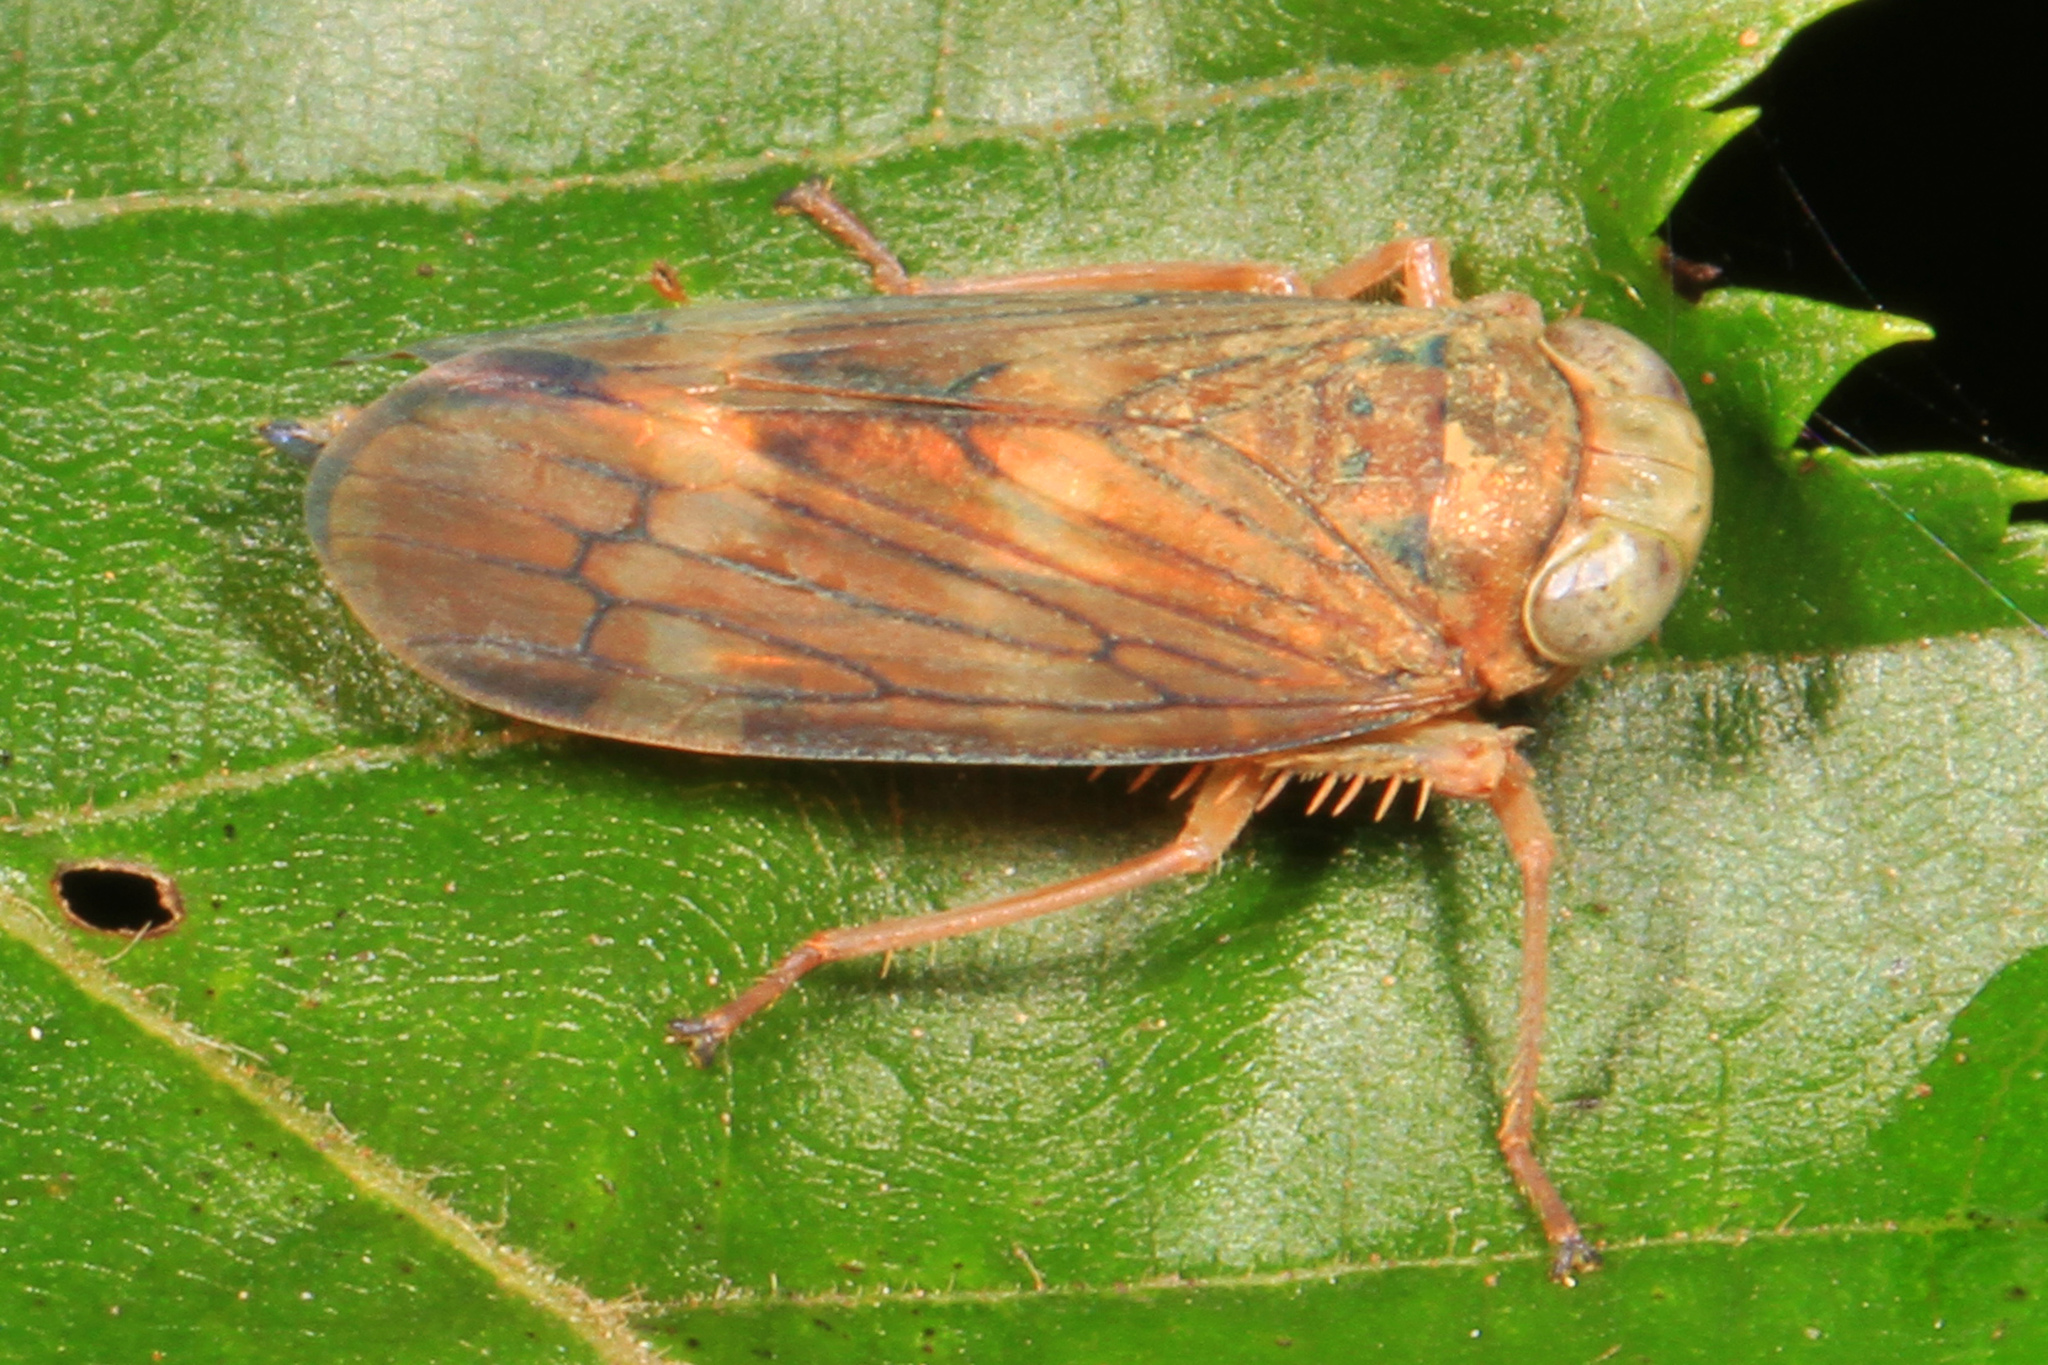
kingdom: Animalia
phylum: Arthropoda
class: Insecta
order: Hemiptera
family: Cicadellidae
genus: Jikradia
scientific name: Jikradia olitoria
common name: Coppery leafhopper
